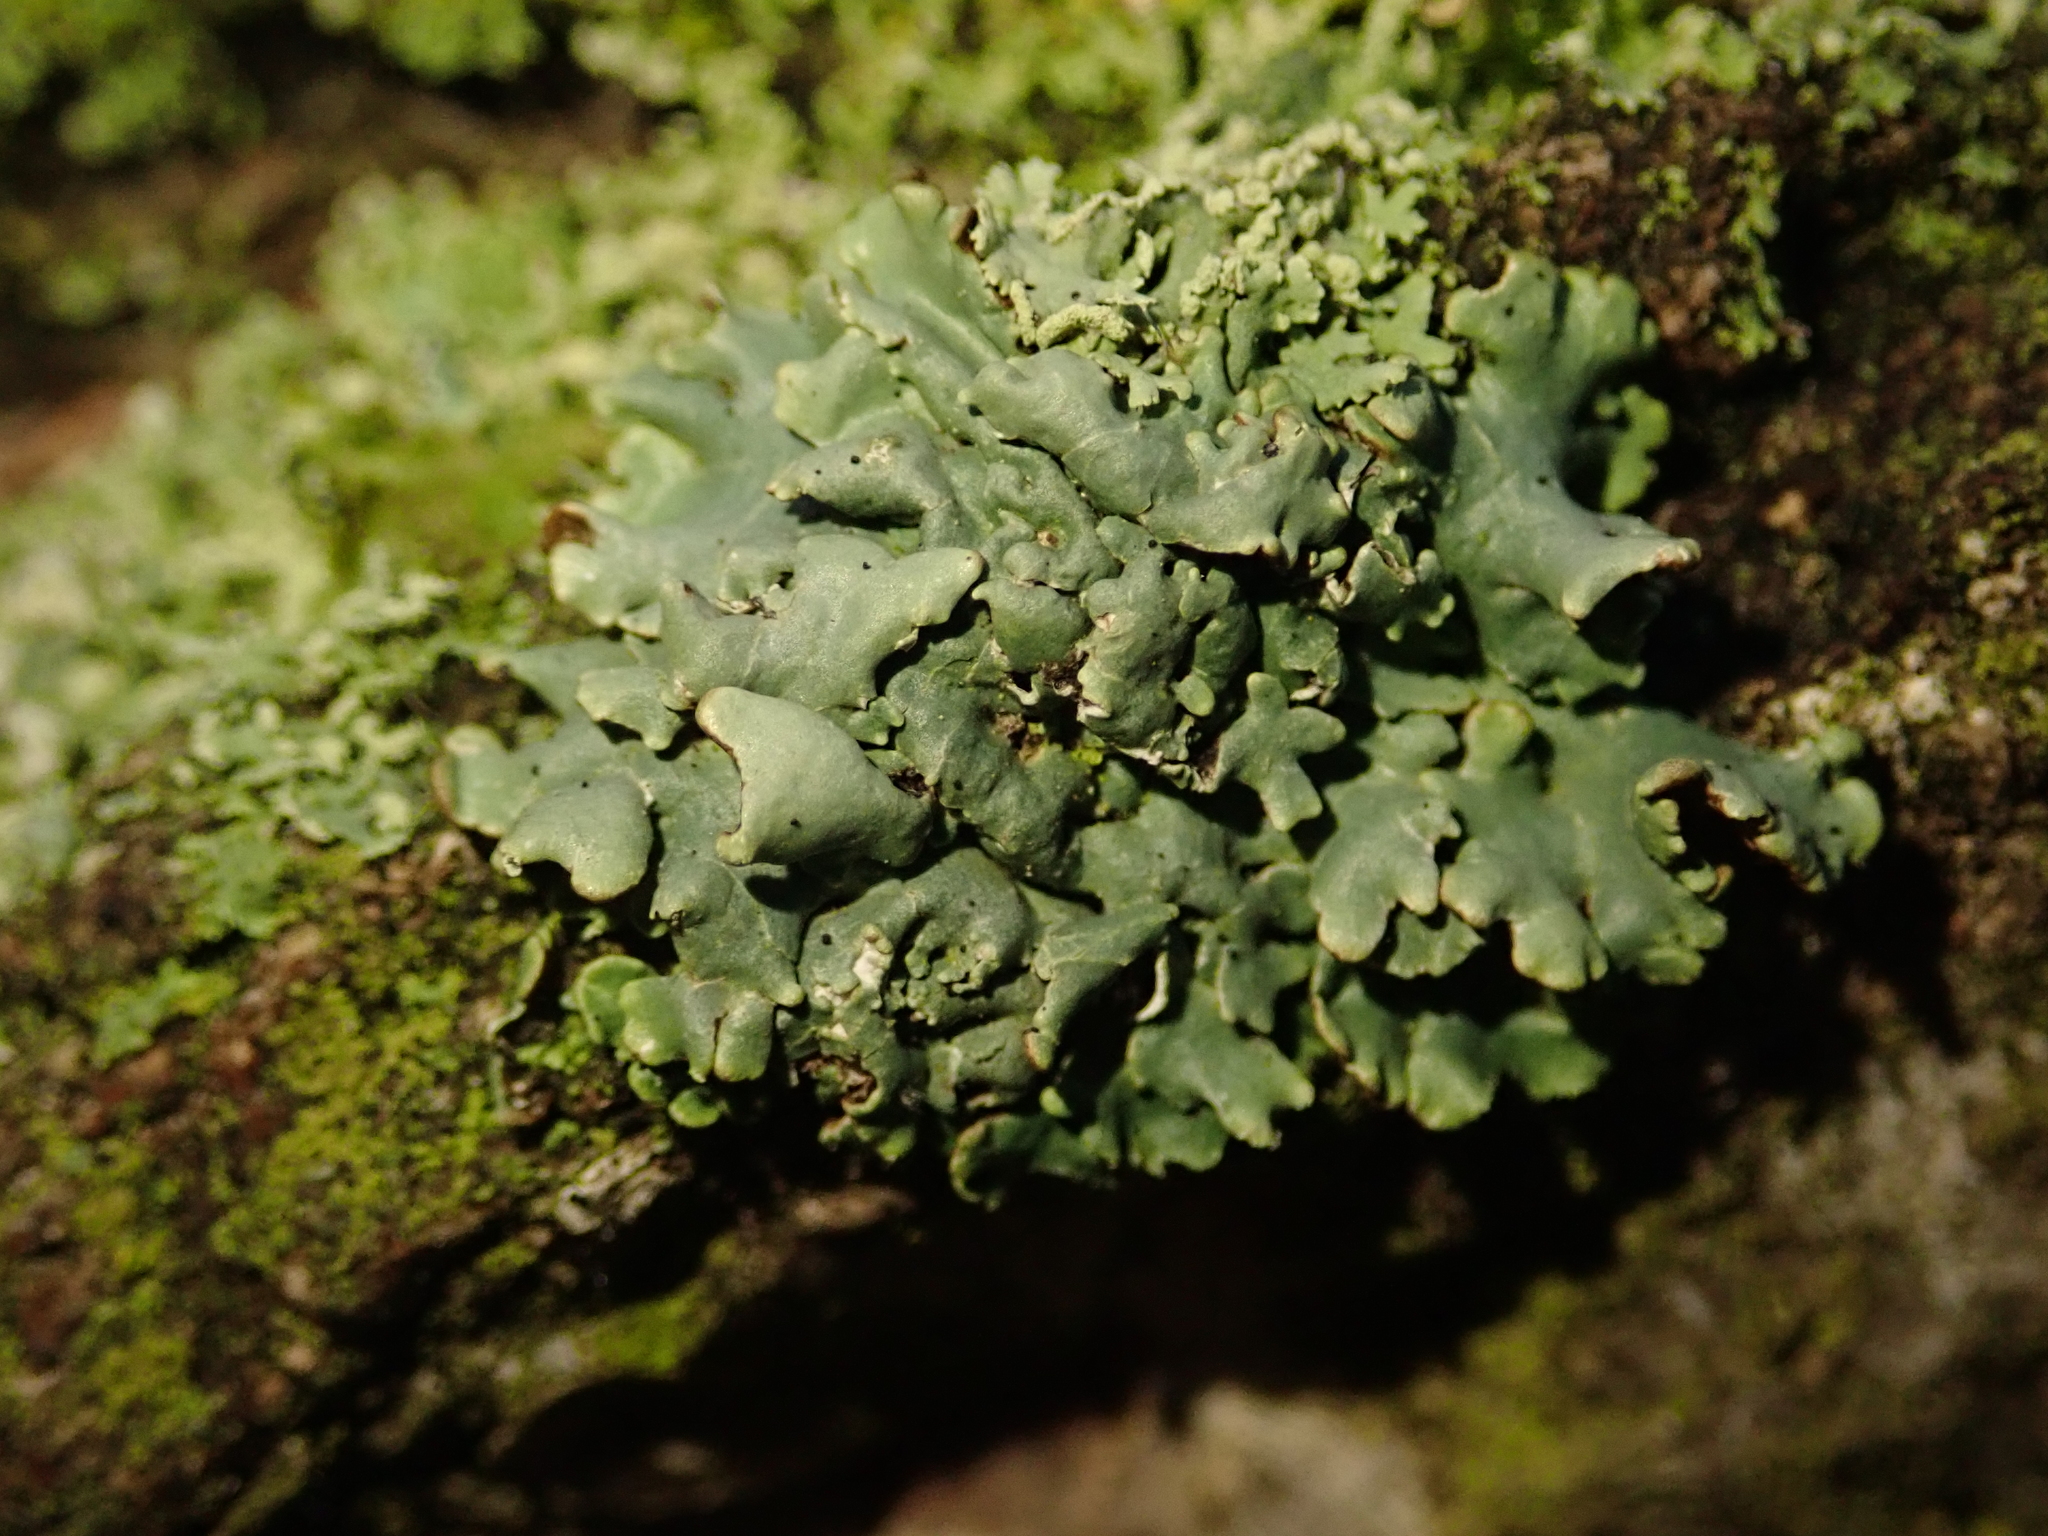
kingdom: Fungi
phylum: Ascomycota
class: Lecanoromycetes
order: Lecanorales
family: Parmeliaceae
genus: Hypogymnia
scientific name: Hypogymnia physodes
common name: Dark crottle
